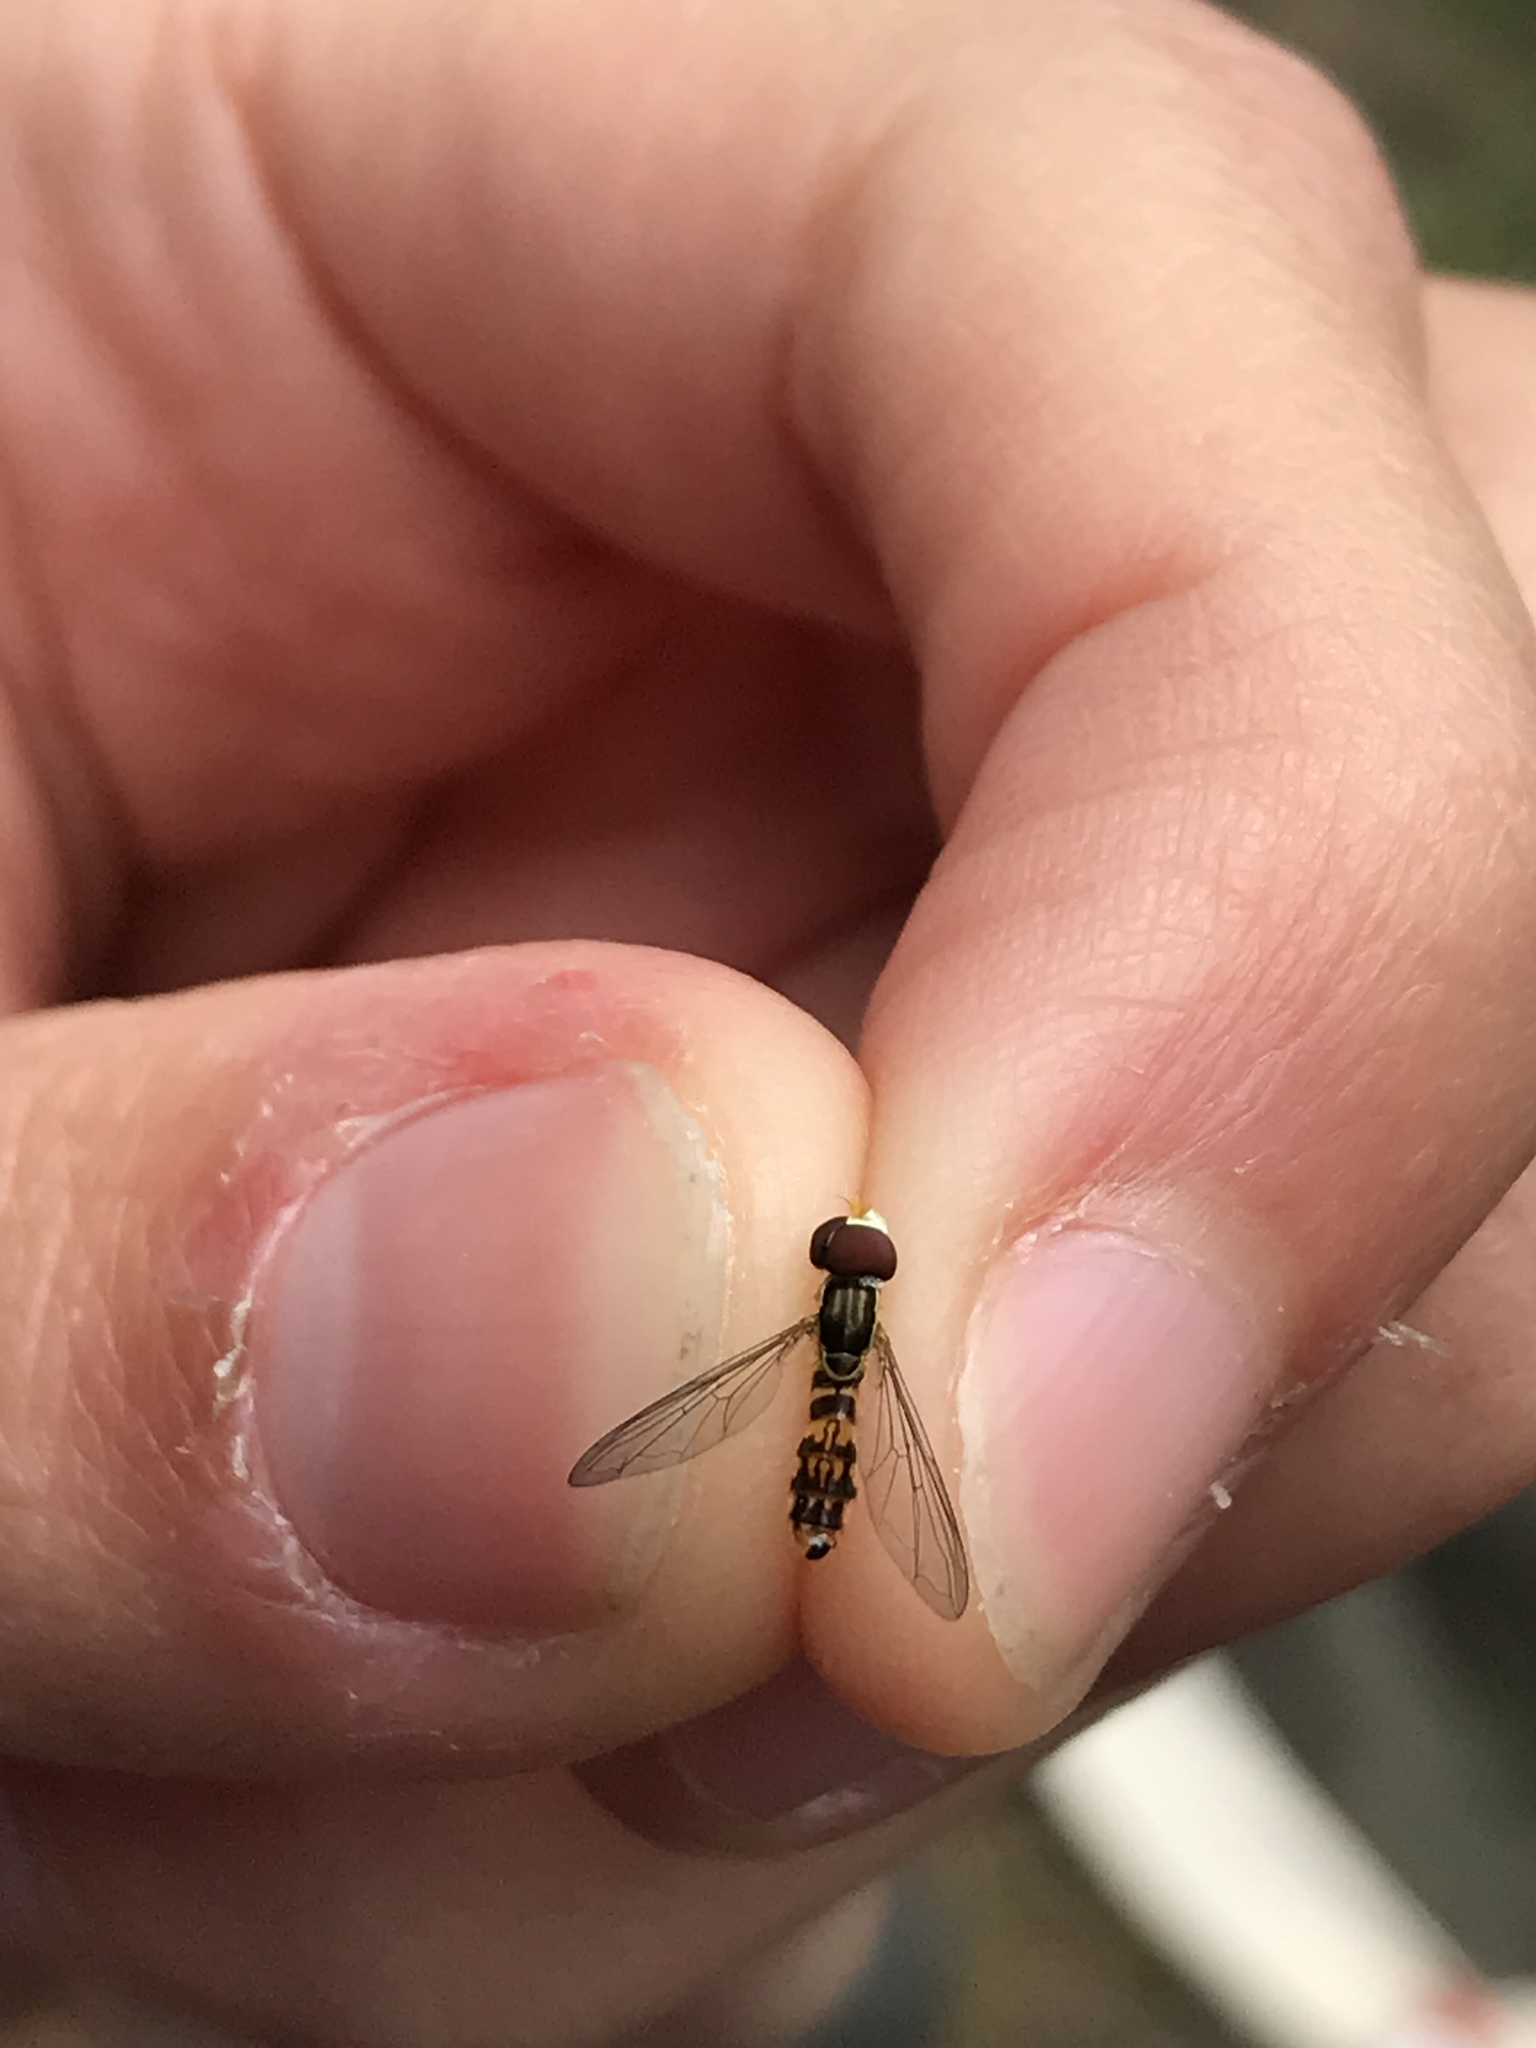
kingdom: Animalia
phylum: Arthropoda
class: Insecta
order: Diptera
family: Syrphidae
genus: Toxomerus
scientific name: Toxomerus geminatus
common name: Eastern calligrapher
